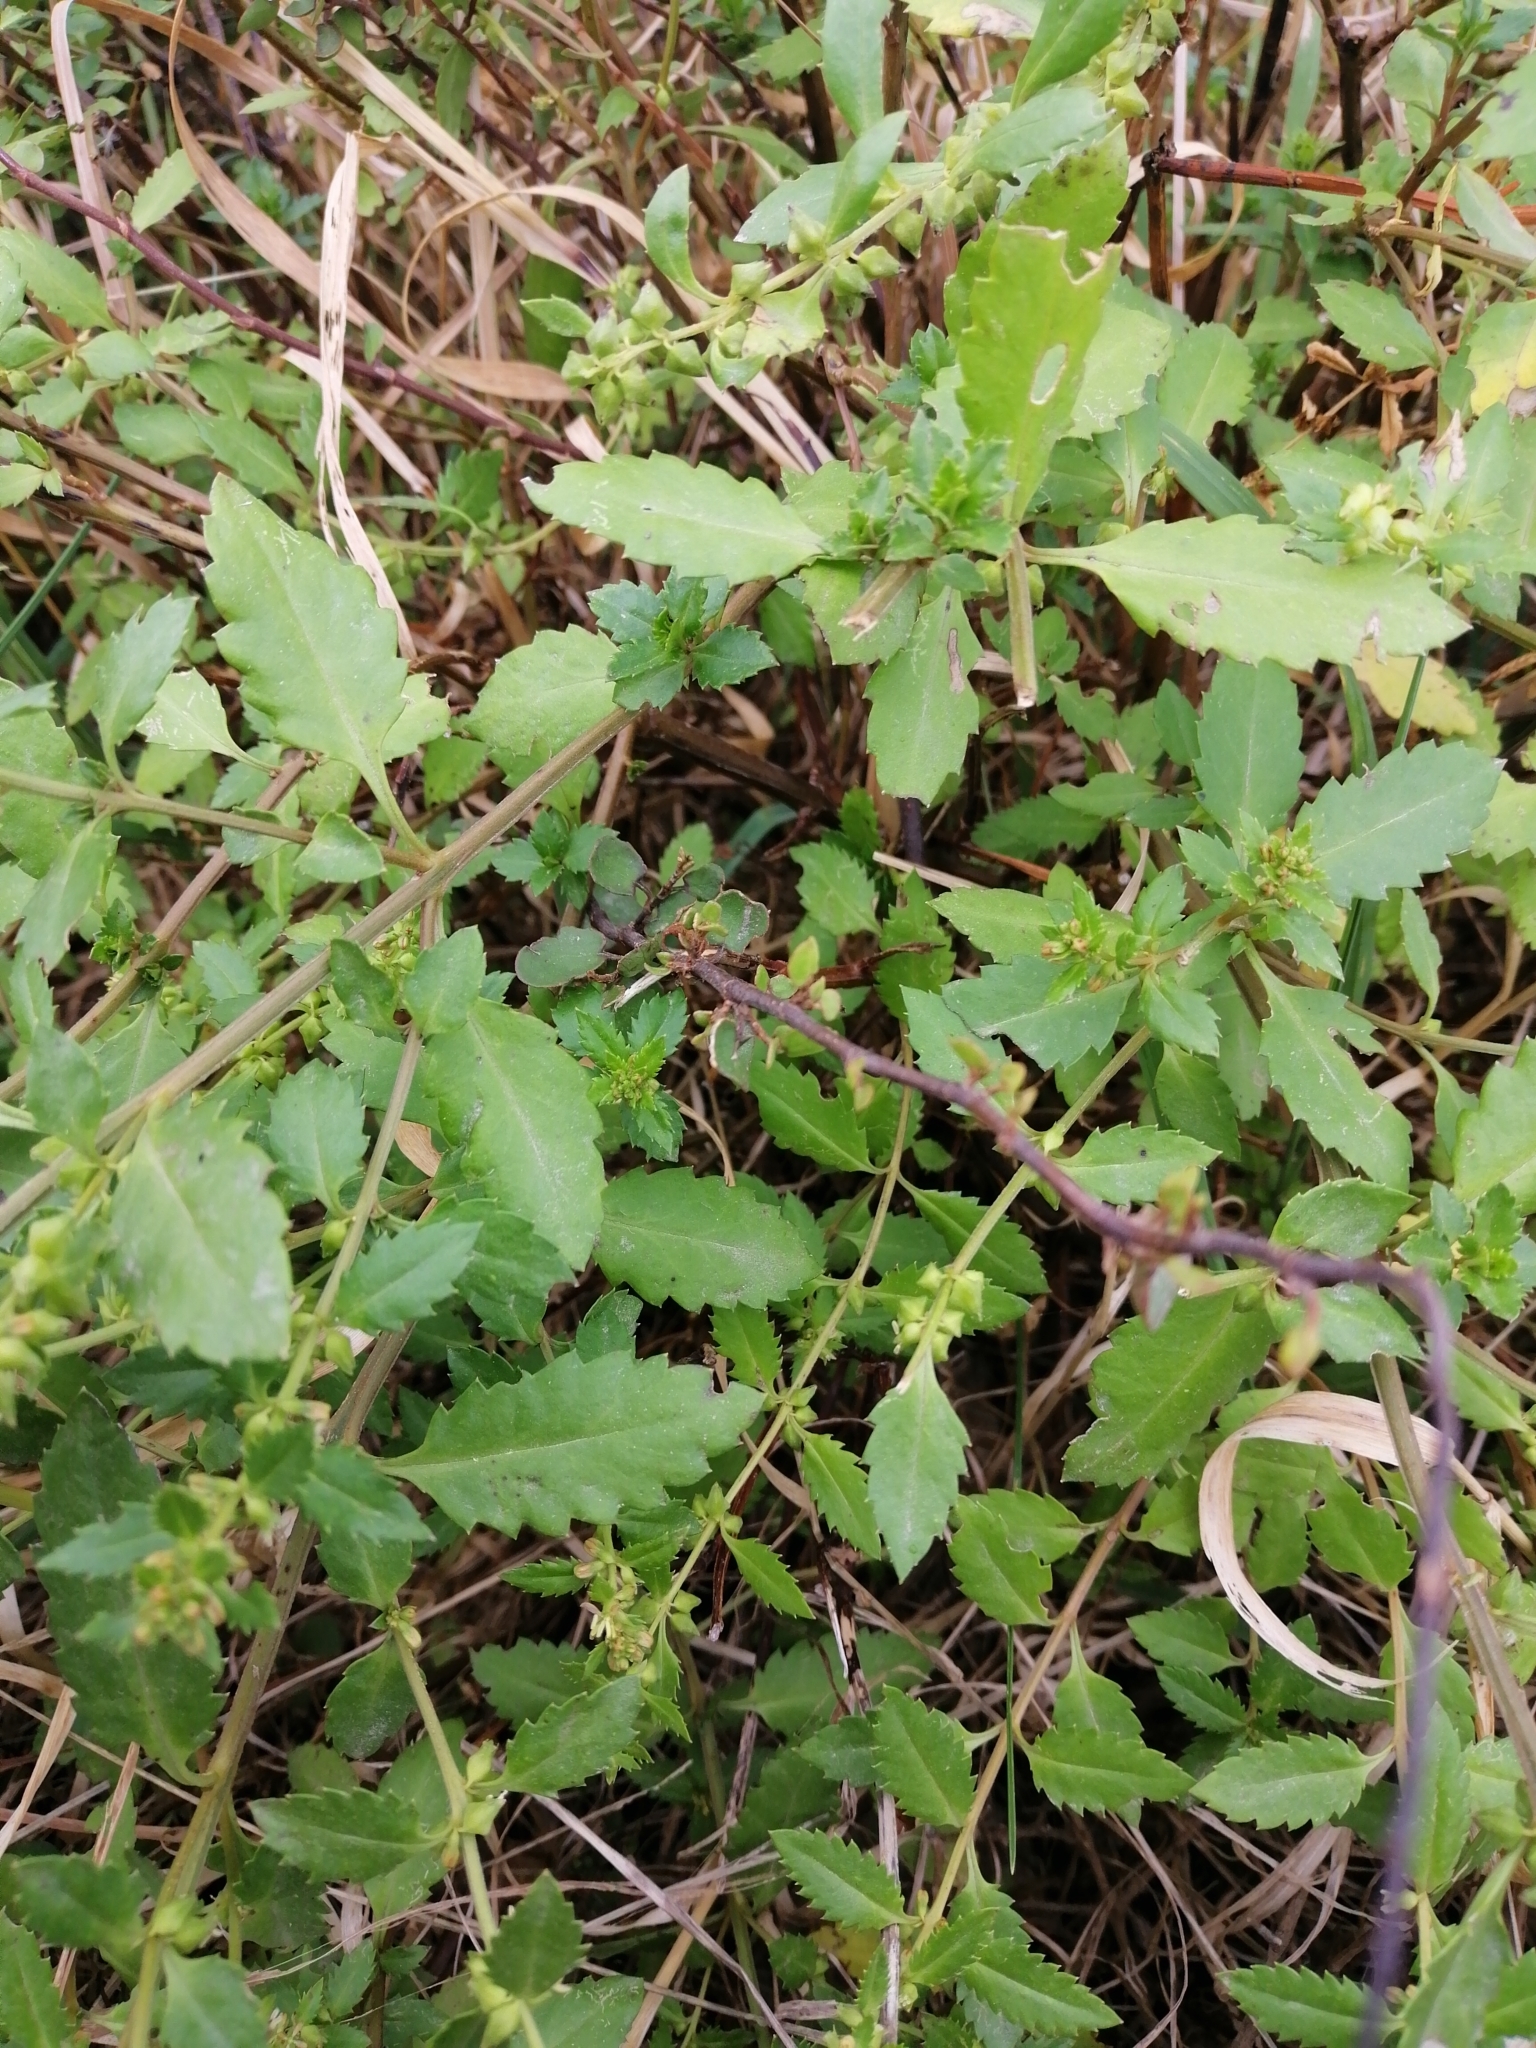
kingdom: Plantae
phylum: Tracheophyta
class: Magnoliopsida
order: Saxifragales
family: Haloragaceae
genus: Haloragis
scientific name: Haloragis erecta
